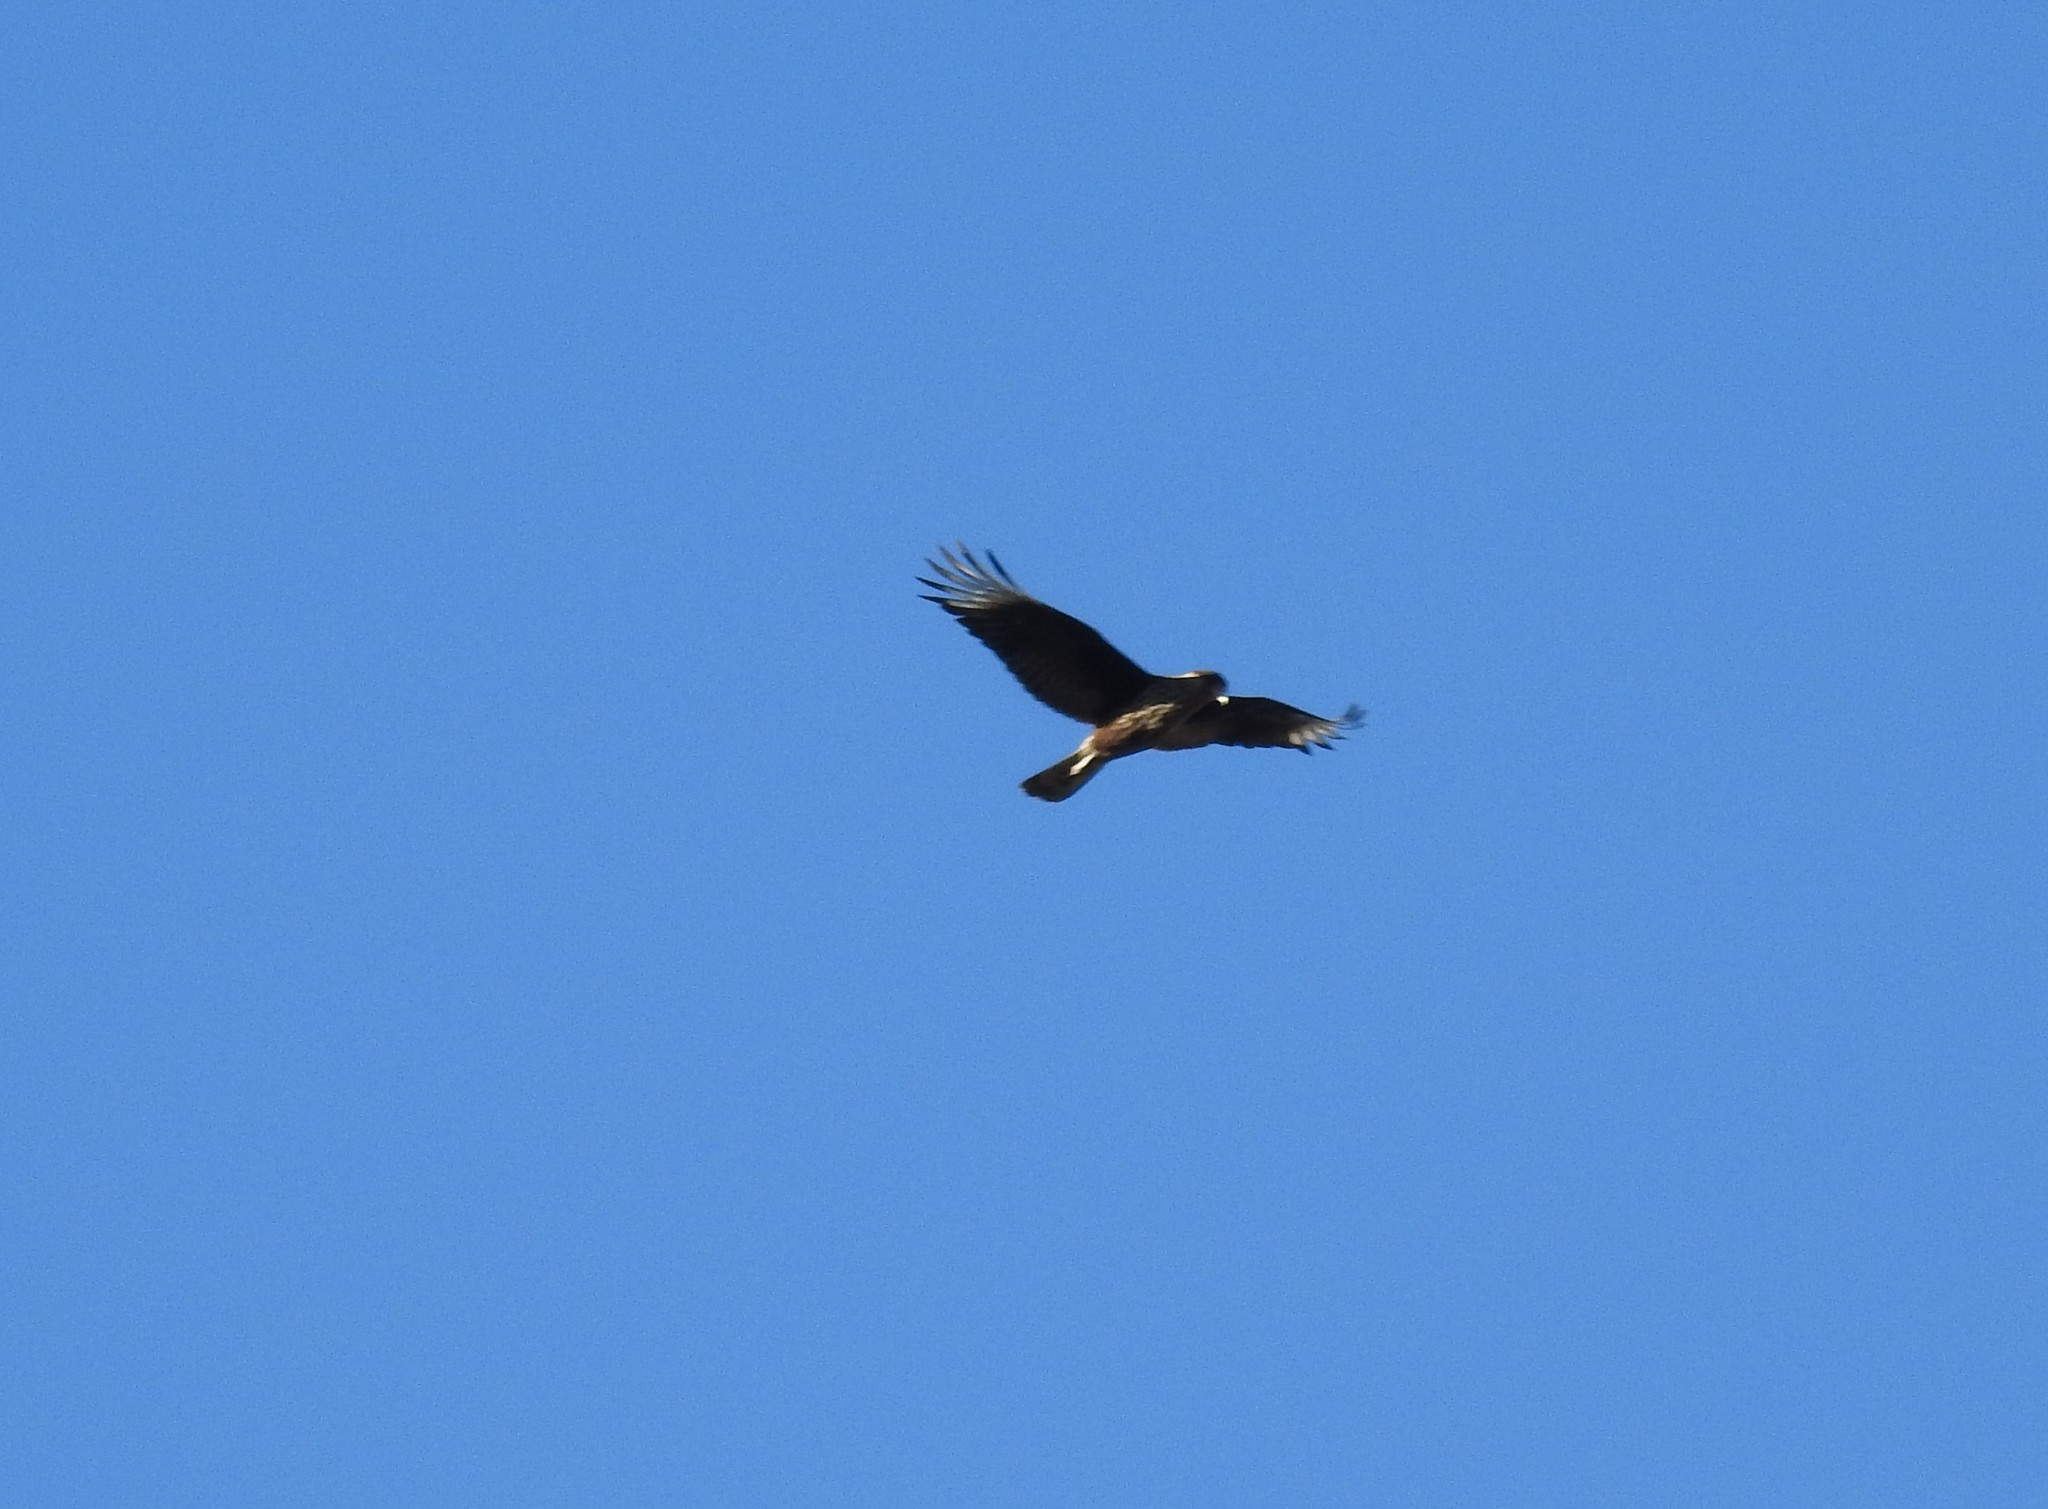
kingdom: Animalia
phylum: Chordata
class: Aves
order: Falconiformes
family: Falconidae
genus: Caracara
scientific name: Caracara plancus
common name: Southern caracara
